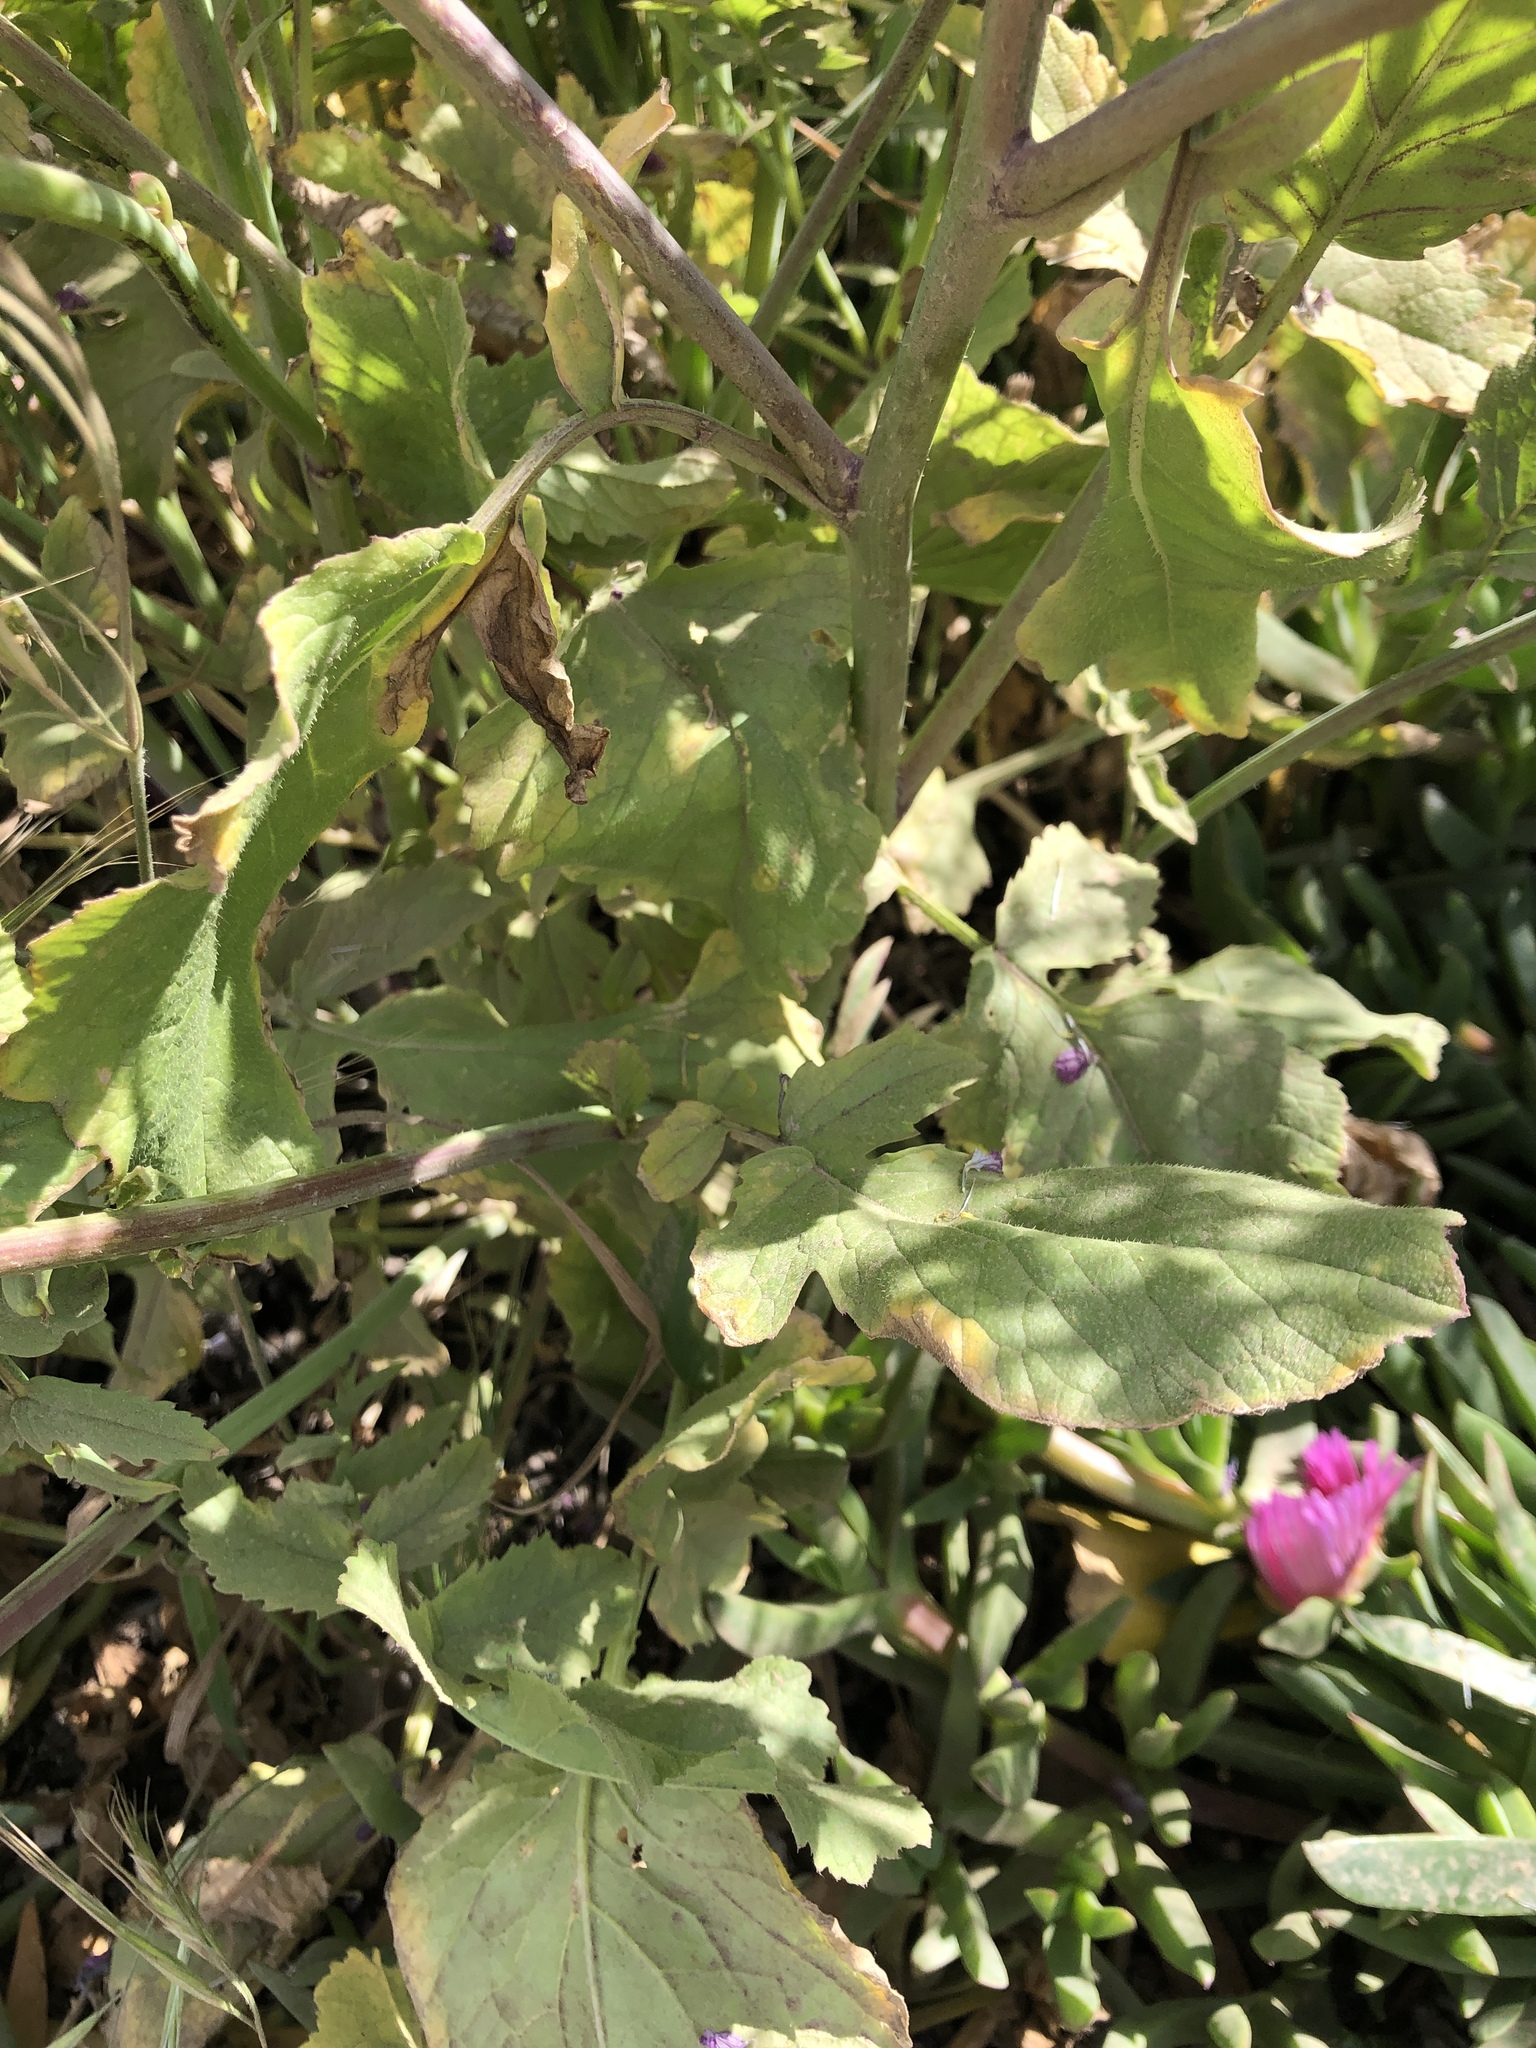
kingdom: Plantae
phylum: Tracheophyta
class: Magnoliopsida
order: Brassicales
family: Brassicaceae
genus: Raphanus
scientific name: Raphanus sativus
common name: Cultivated radish
